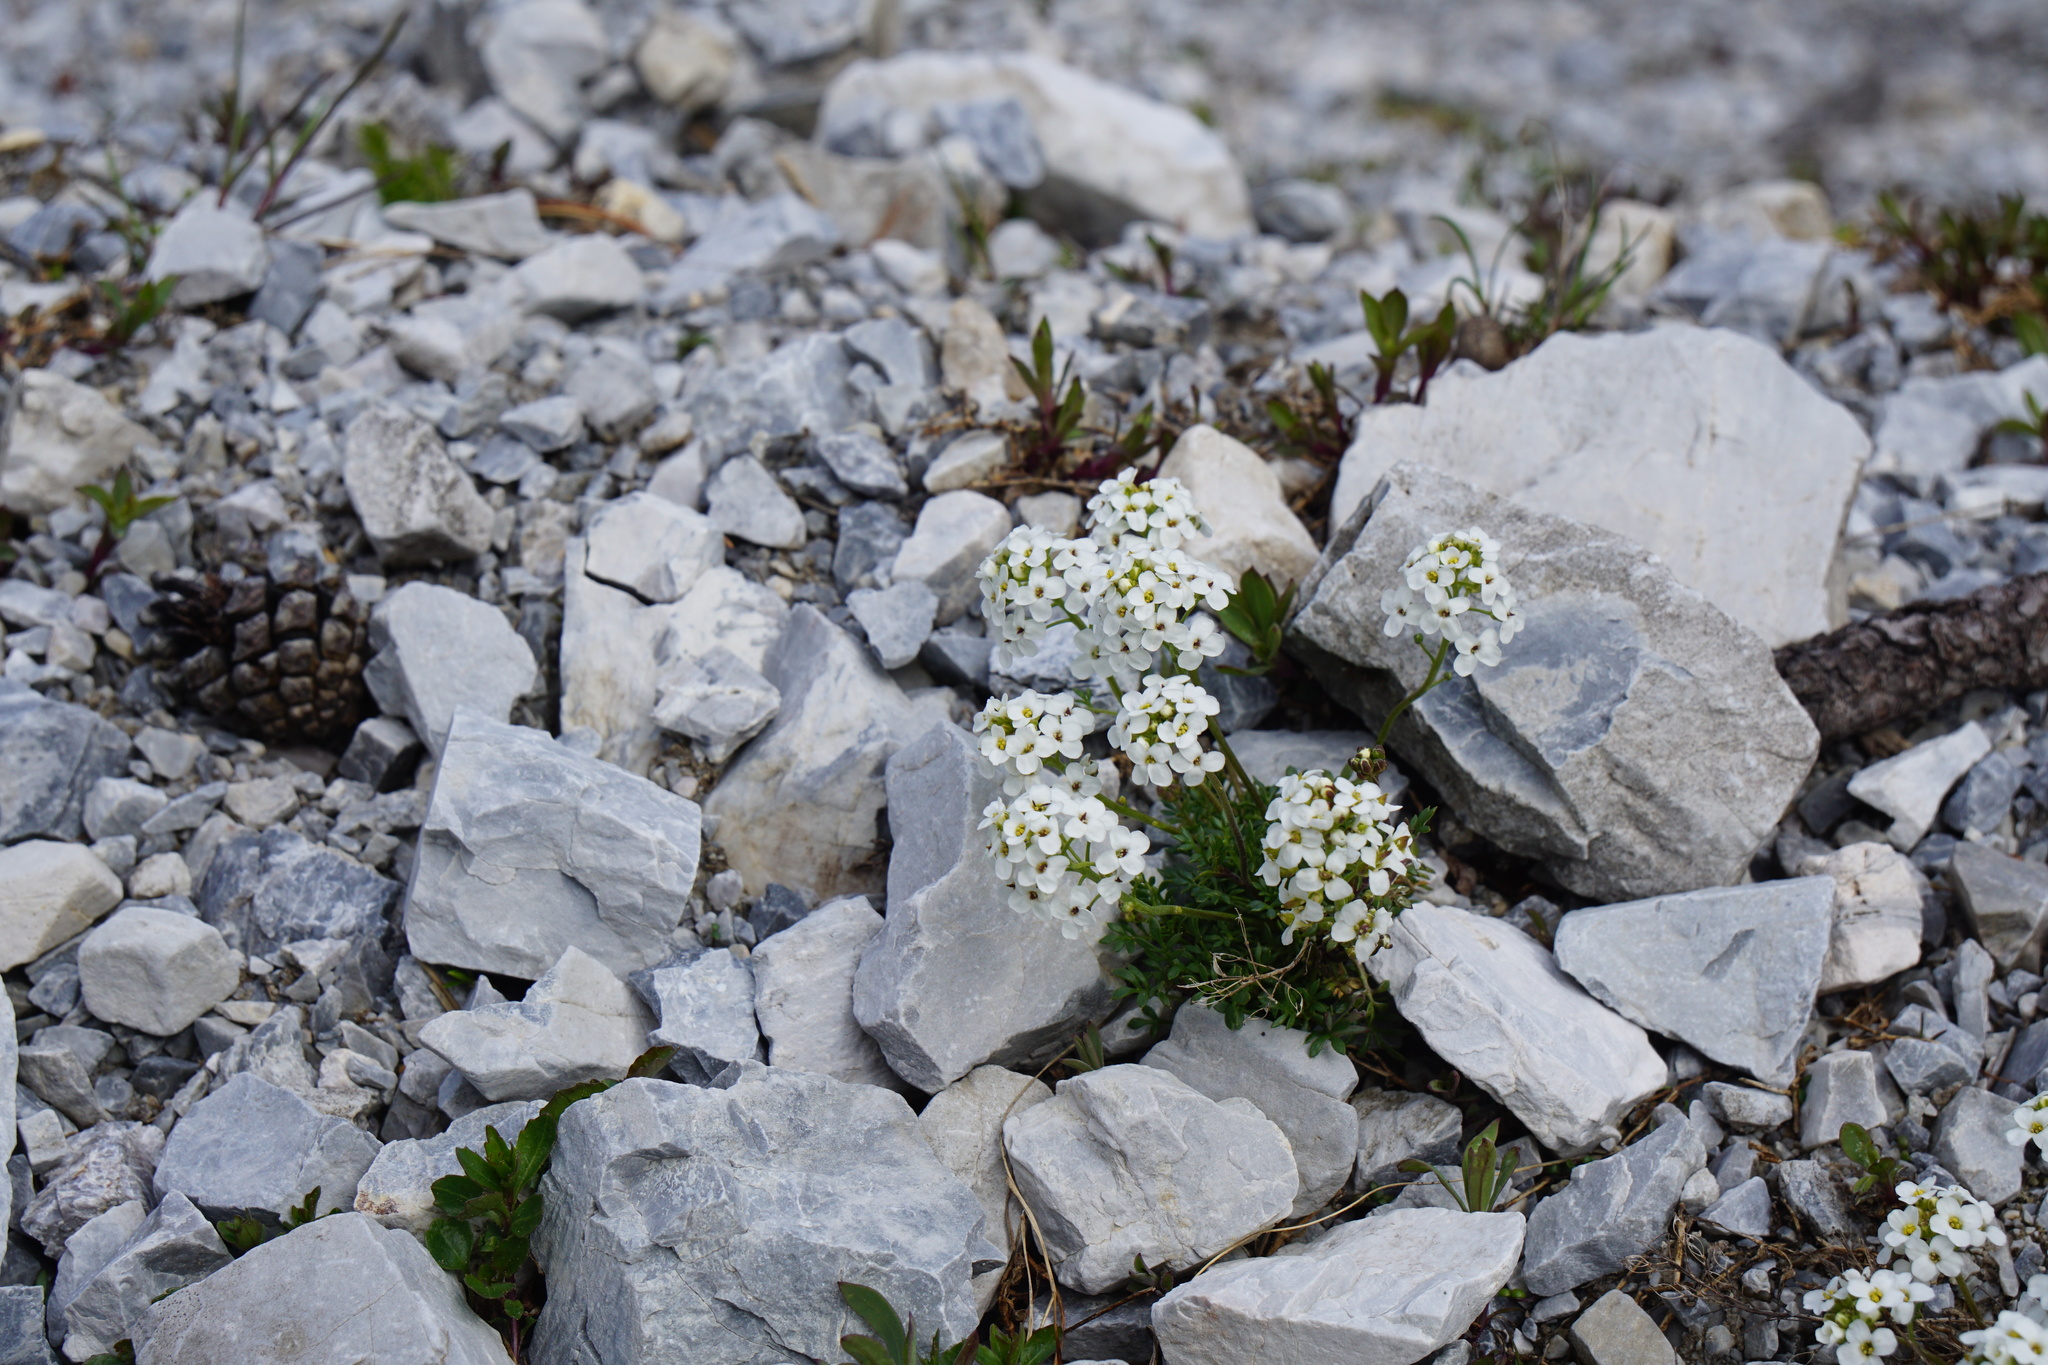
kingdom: Plantae
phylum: Tracheophyta
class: Magnoliopsida
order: Brassicales
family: Brassicaceae
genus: Hornungia
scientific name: Hornungia alpina
